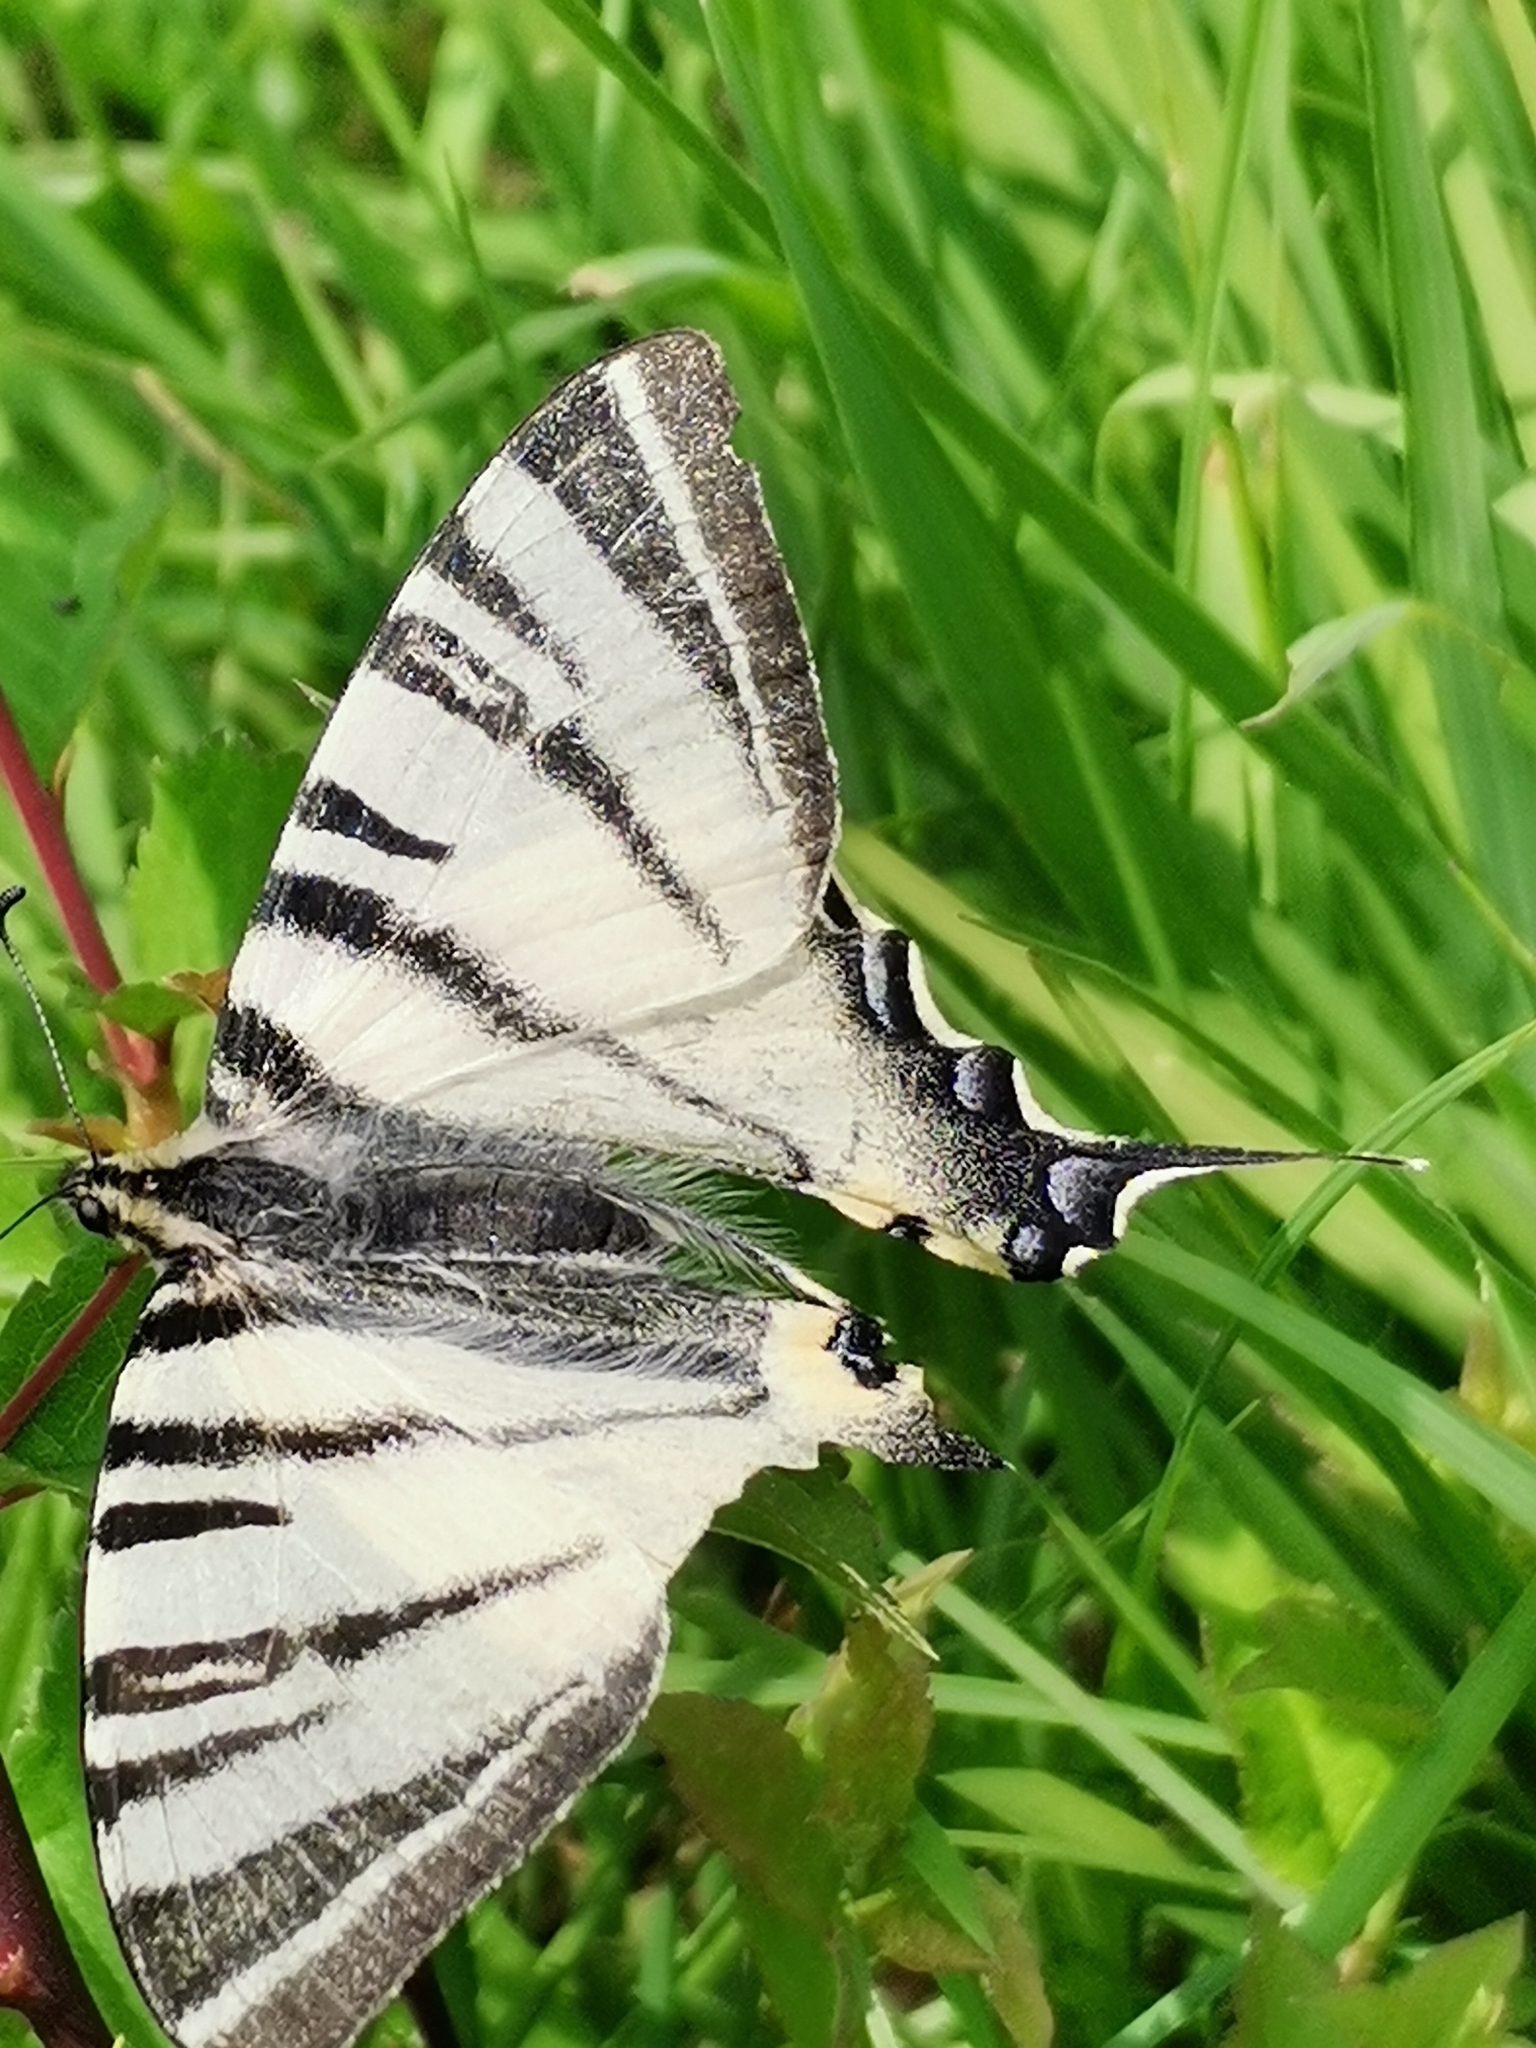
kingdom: Animalia
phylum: Arthropoda
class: Insecta
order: Lepidoptera
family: Papilionidae
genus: Iphiclides
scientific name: Iphiclides podalirius
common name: Scarce swallowtail
